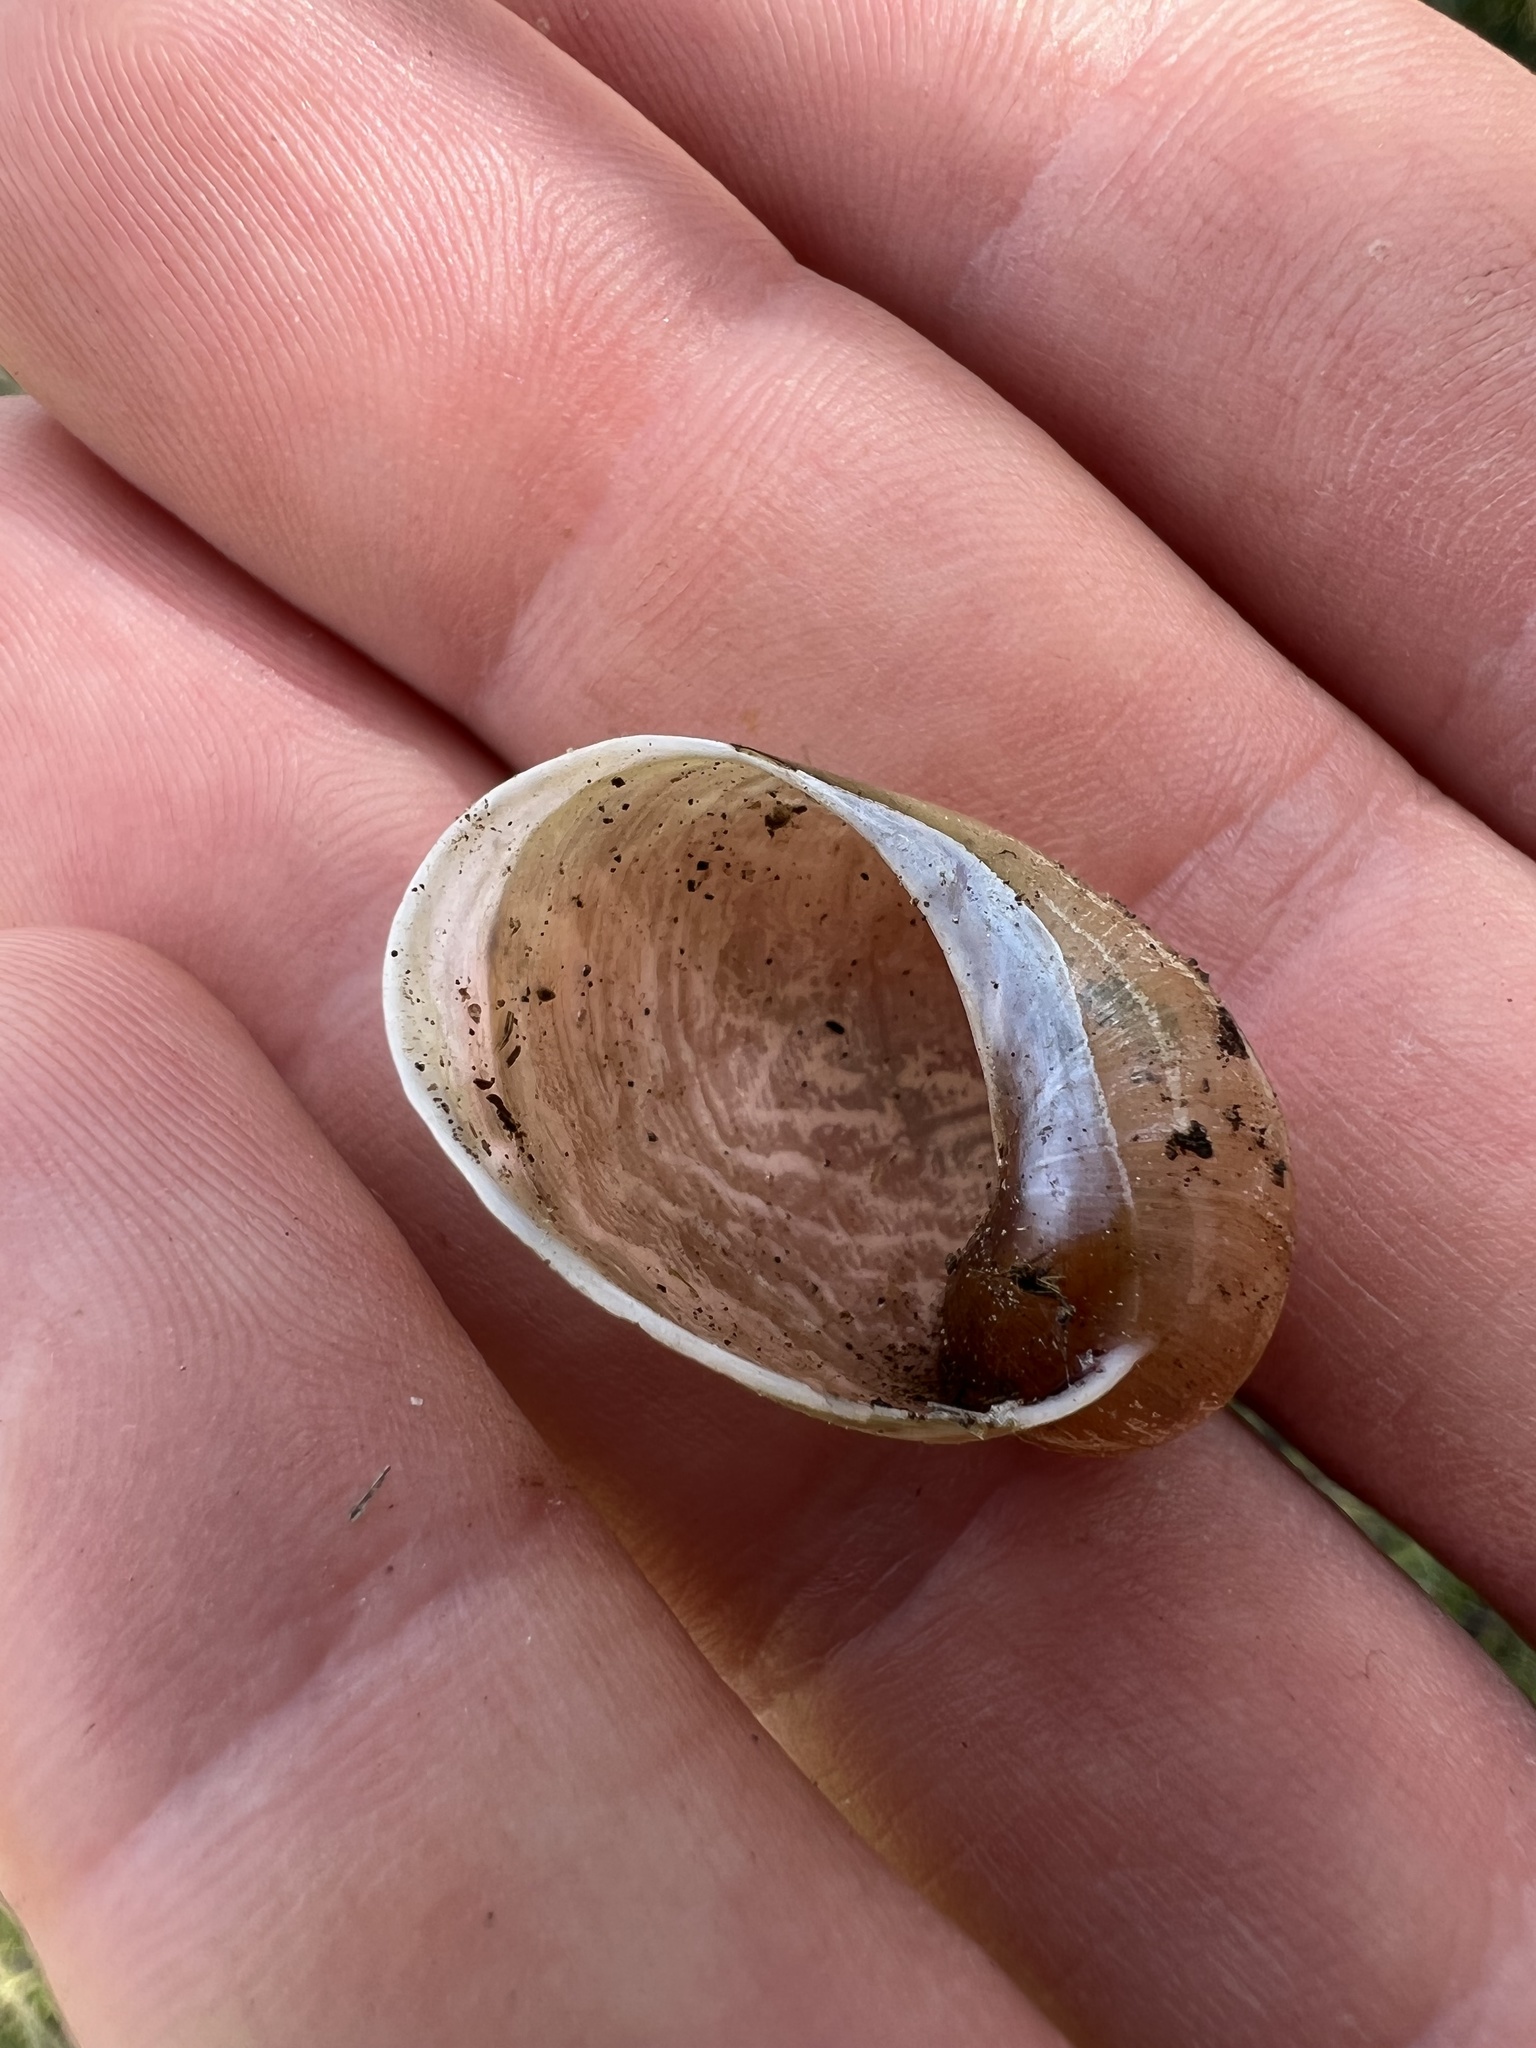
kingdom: Animalia
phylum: Mollusca
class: Gastropoda
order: Stylommatophora
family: Amphibulimidae
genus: Plekocheilus
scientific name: Plekocheilus
